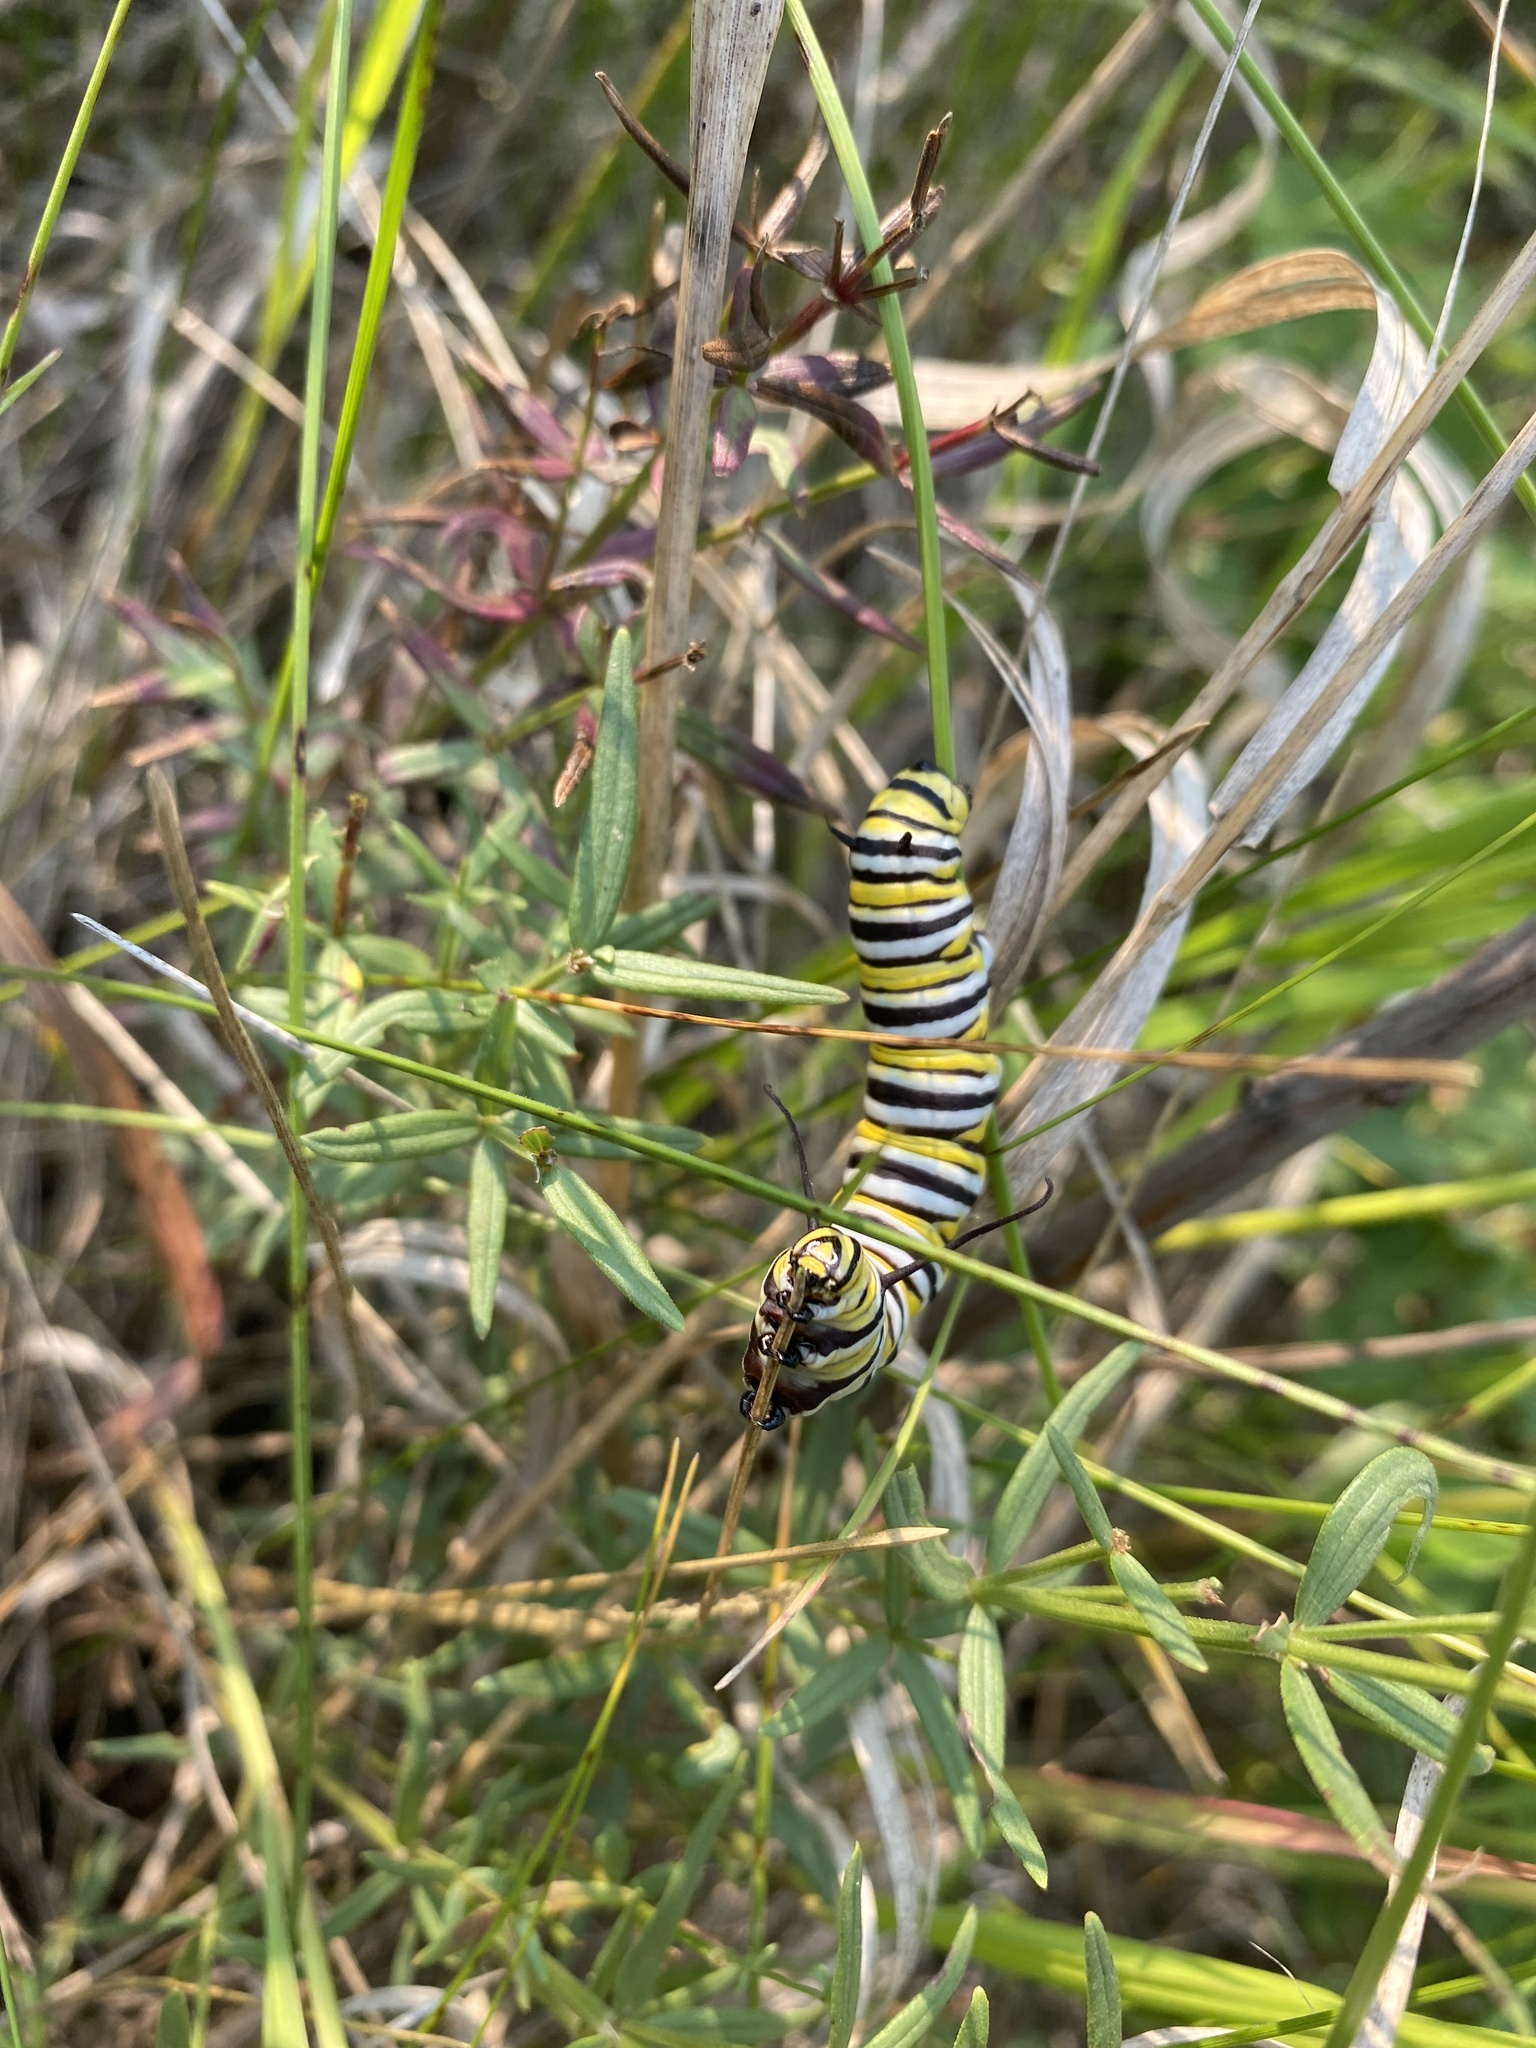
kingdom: Animalia
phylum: Arthropoda
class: Insecta
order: Lepidoptera
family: Nymphalidae
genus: Danaus
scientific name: Danaus plexippus
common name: Monarch
